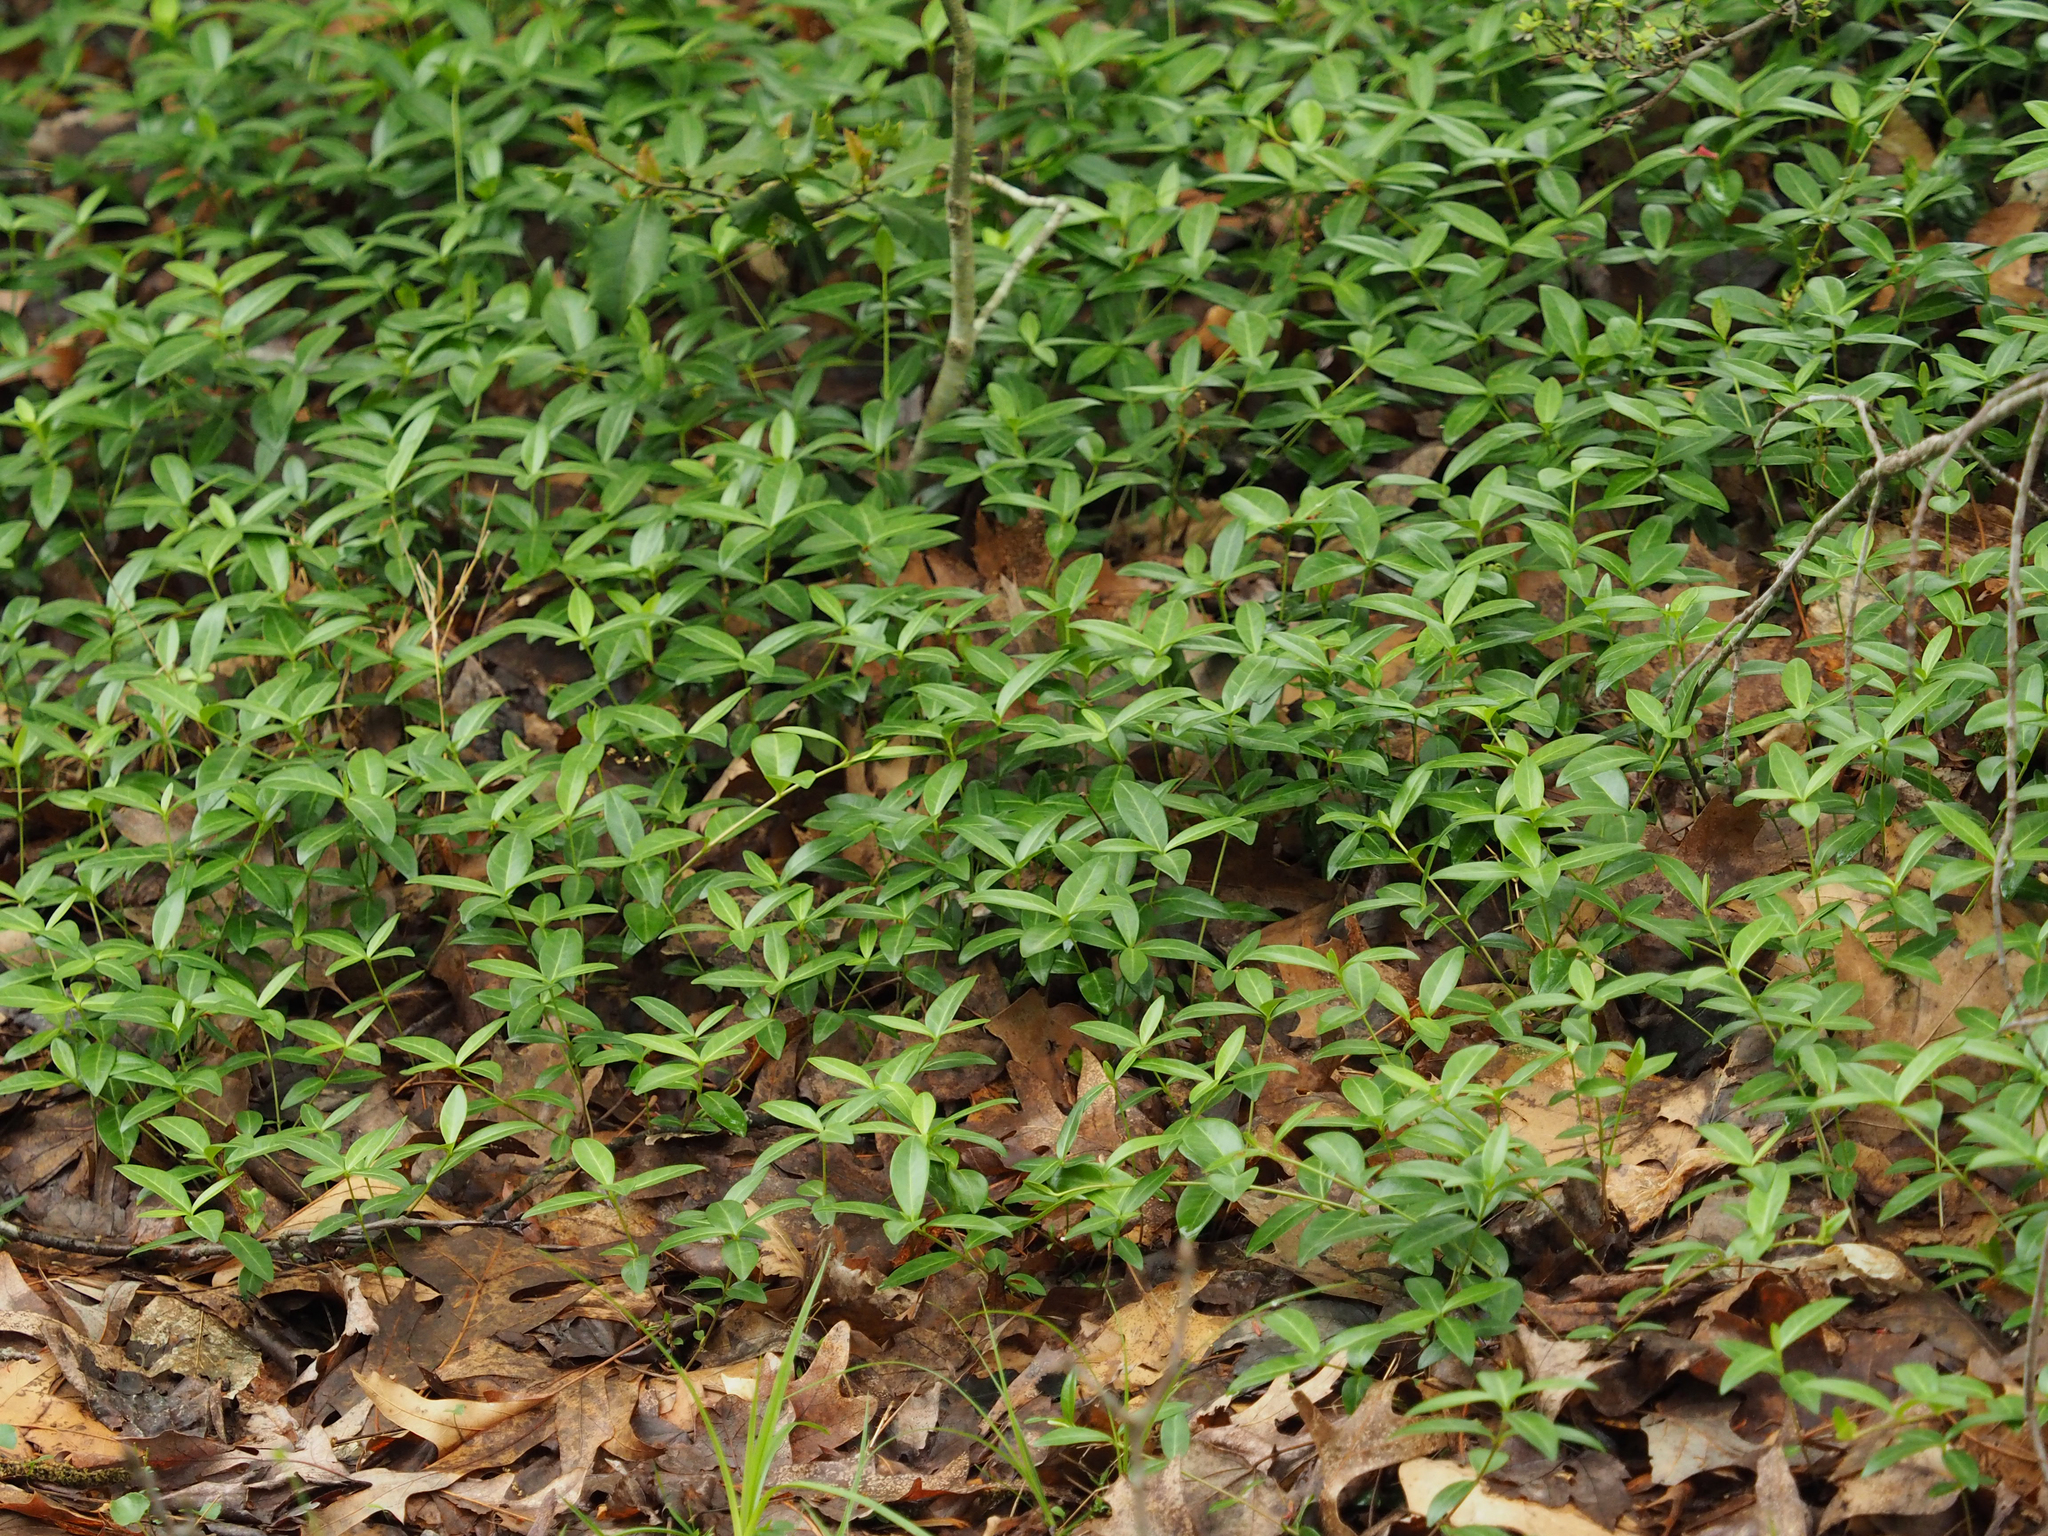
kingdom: Plantae
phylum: Tracheophyta
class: Magnoliopsida
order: Gentianales
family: Apocynaceae
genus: Vinca
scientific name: Vinca minor
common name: Lesser periwinkle
